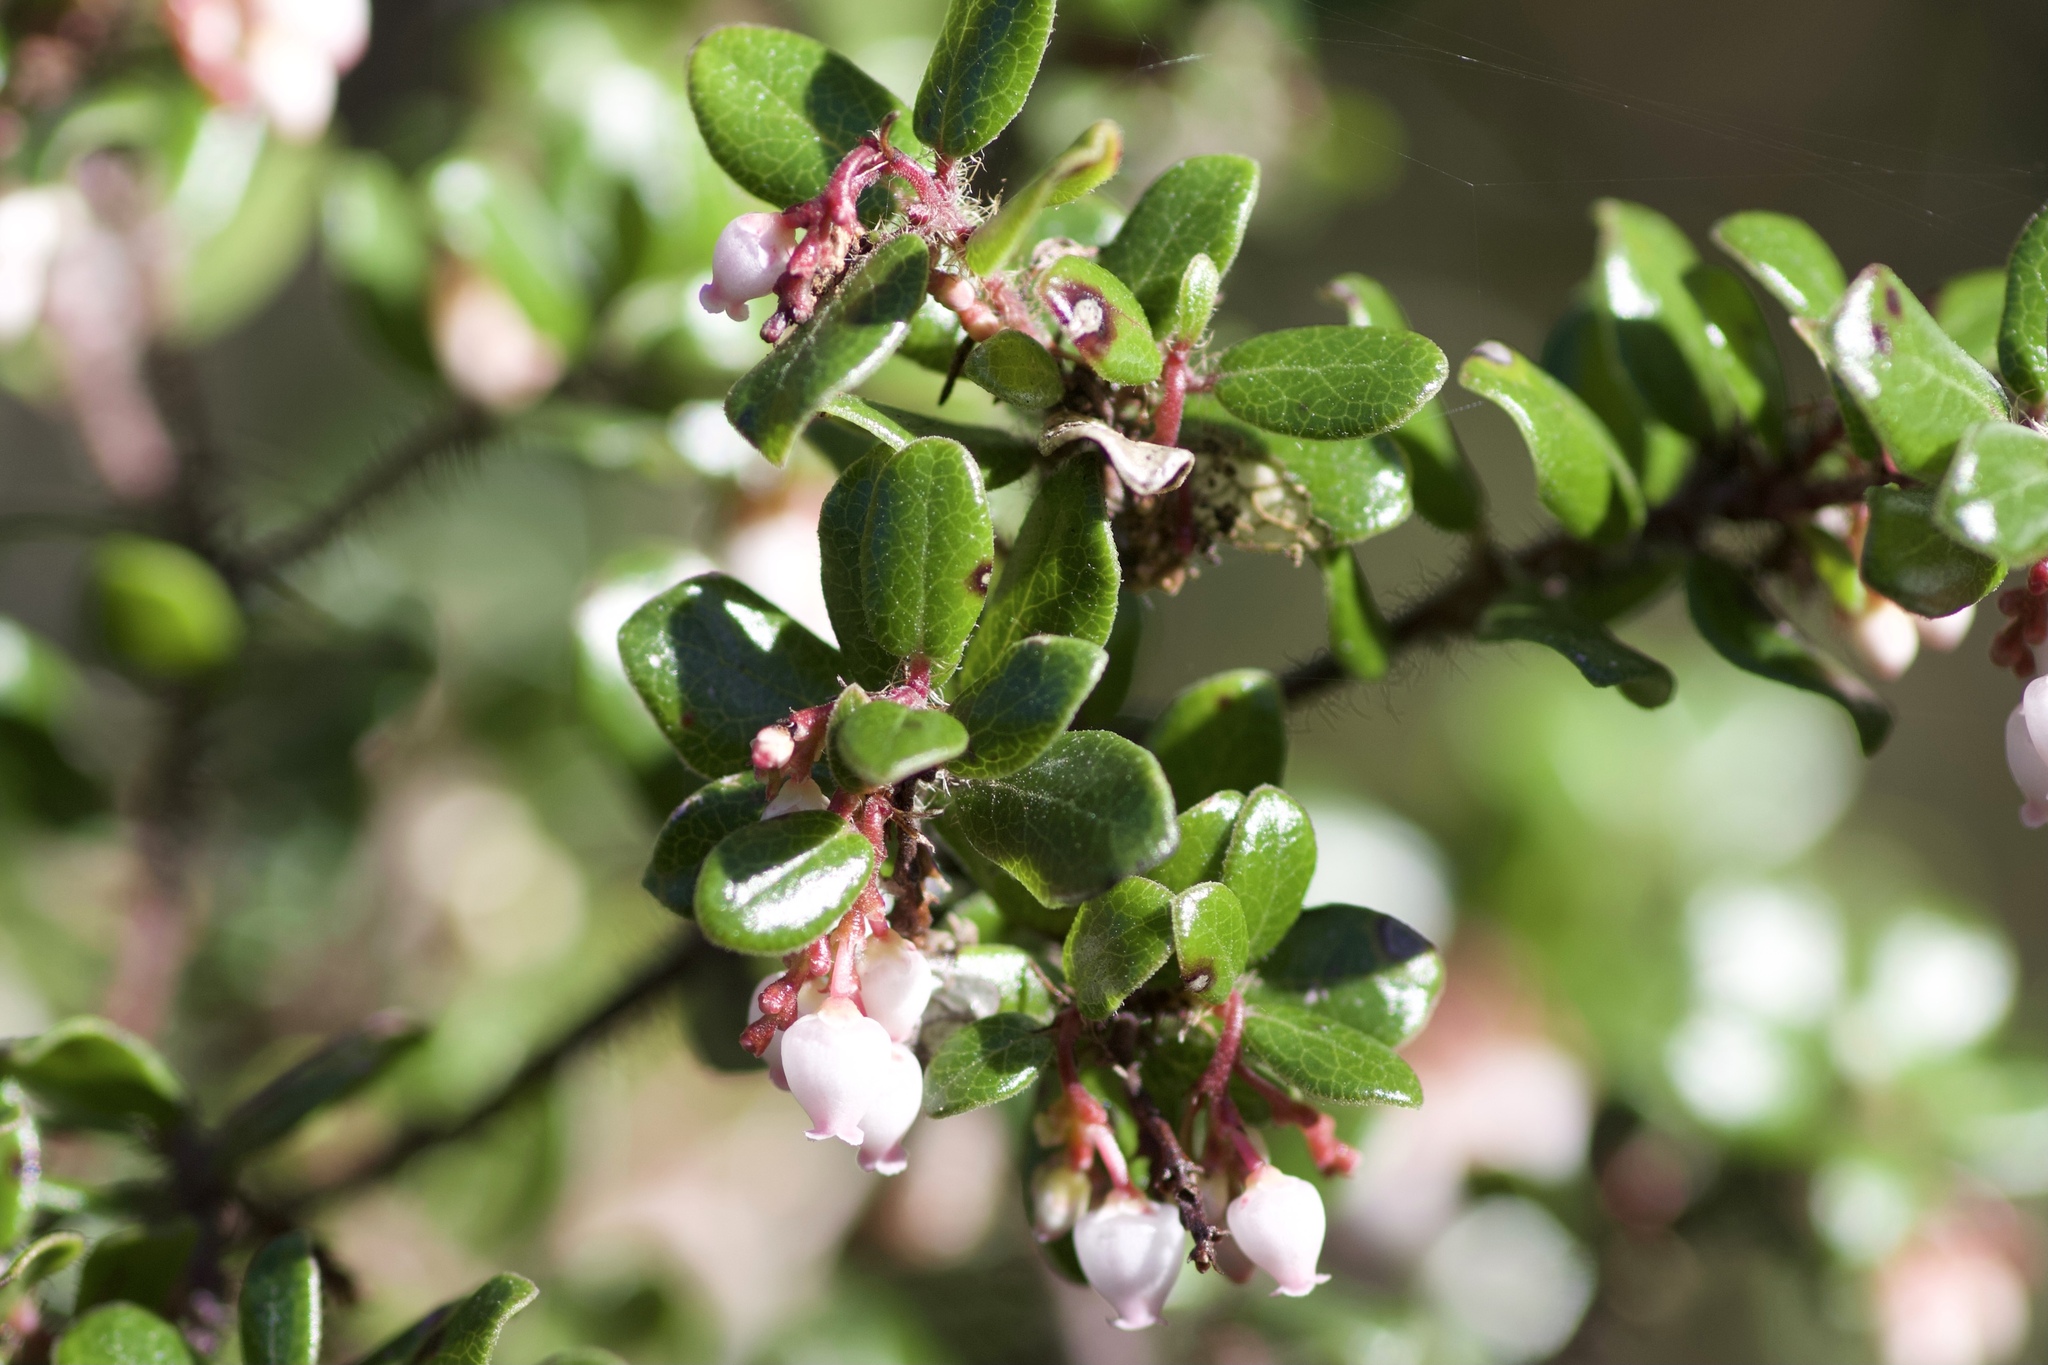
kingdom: Plantae
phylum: Tracheophyta
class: Magnoliopsida
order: Ericales
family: Ericaceae
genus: Arctostaphylos
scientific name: Arctostaphylos nummularia
